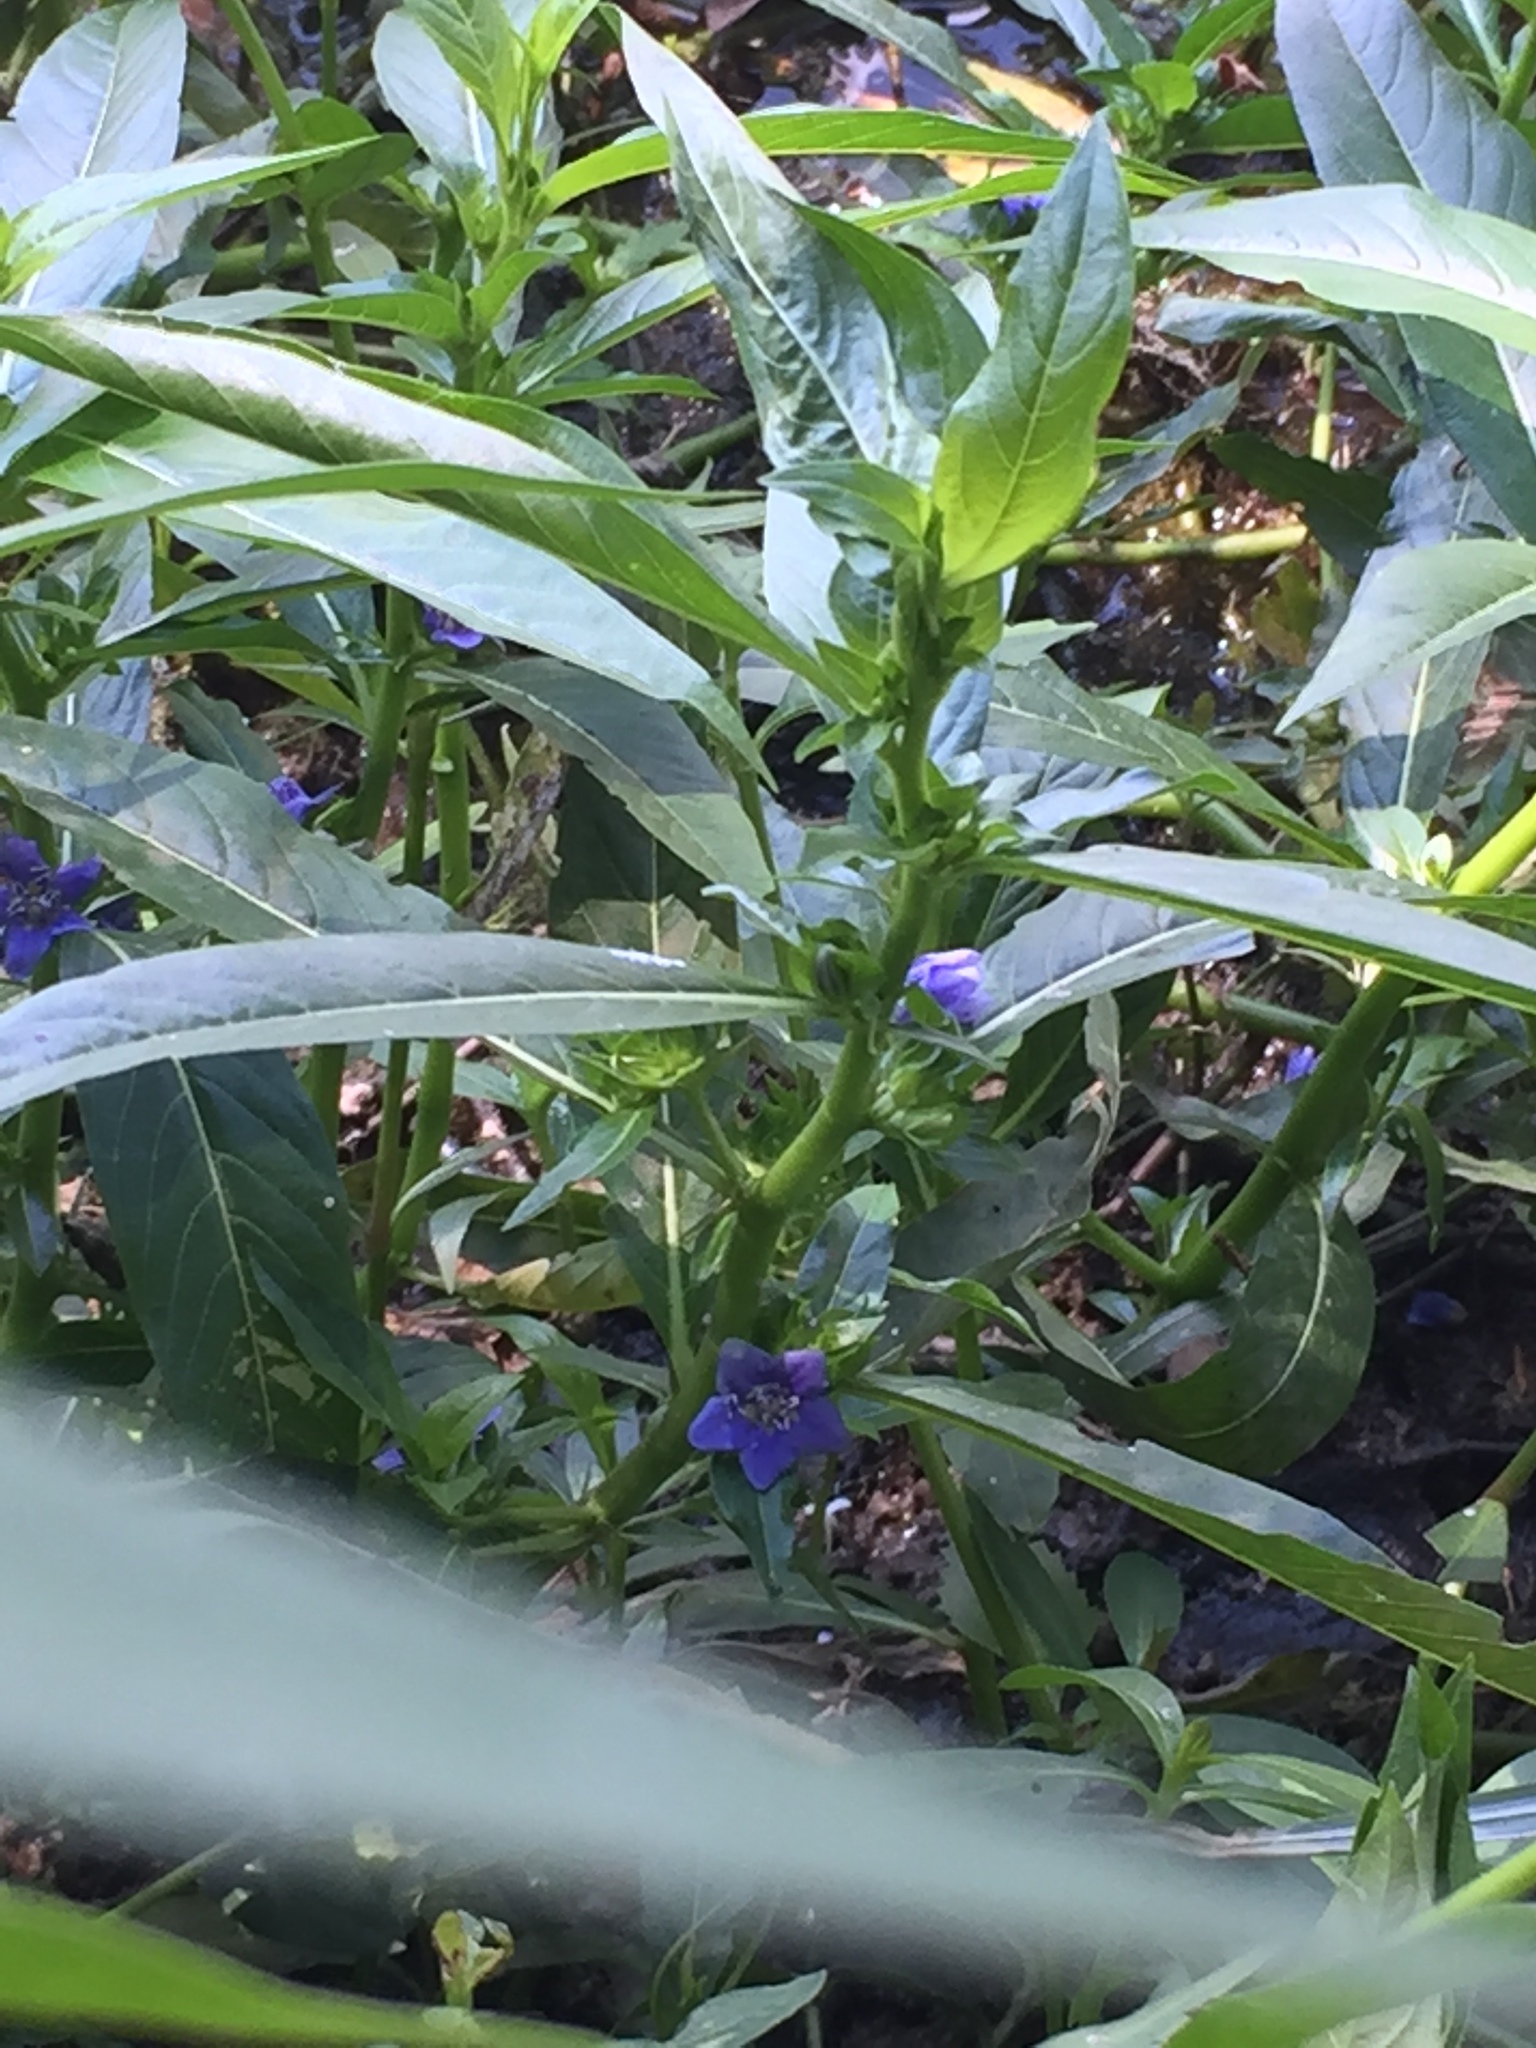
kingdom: Plantae
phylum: Tracheophyta
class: Magnoliopsida
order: Solanales
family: Hydroleaceae
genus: Hydrolea
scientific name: Hydrolea uniflora
